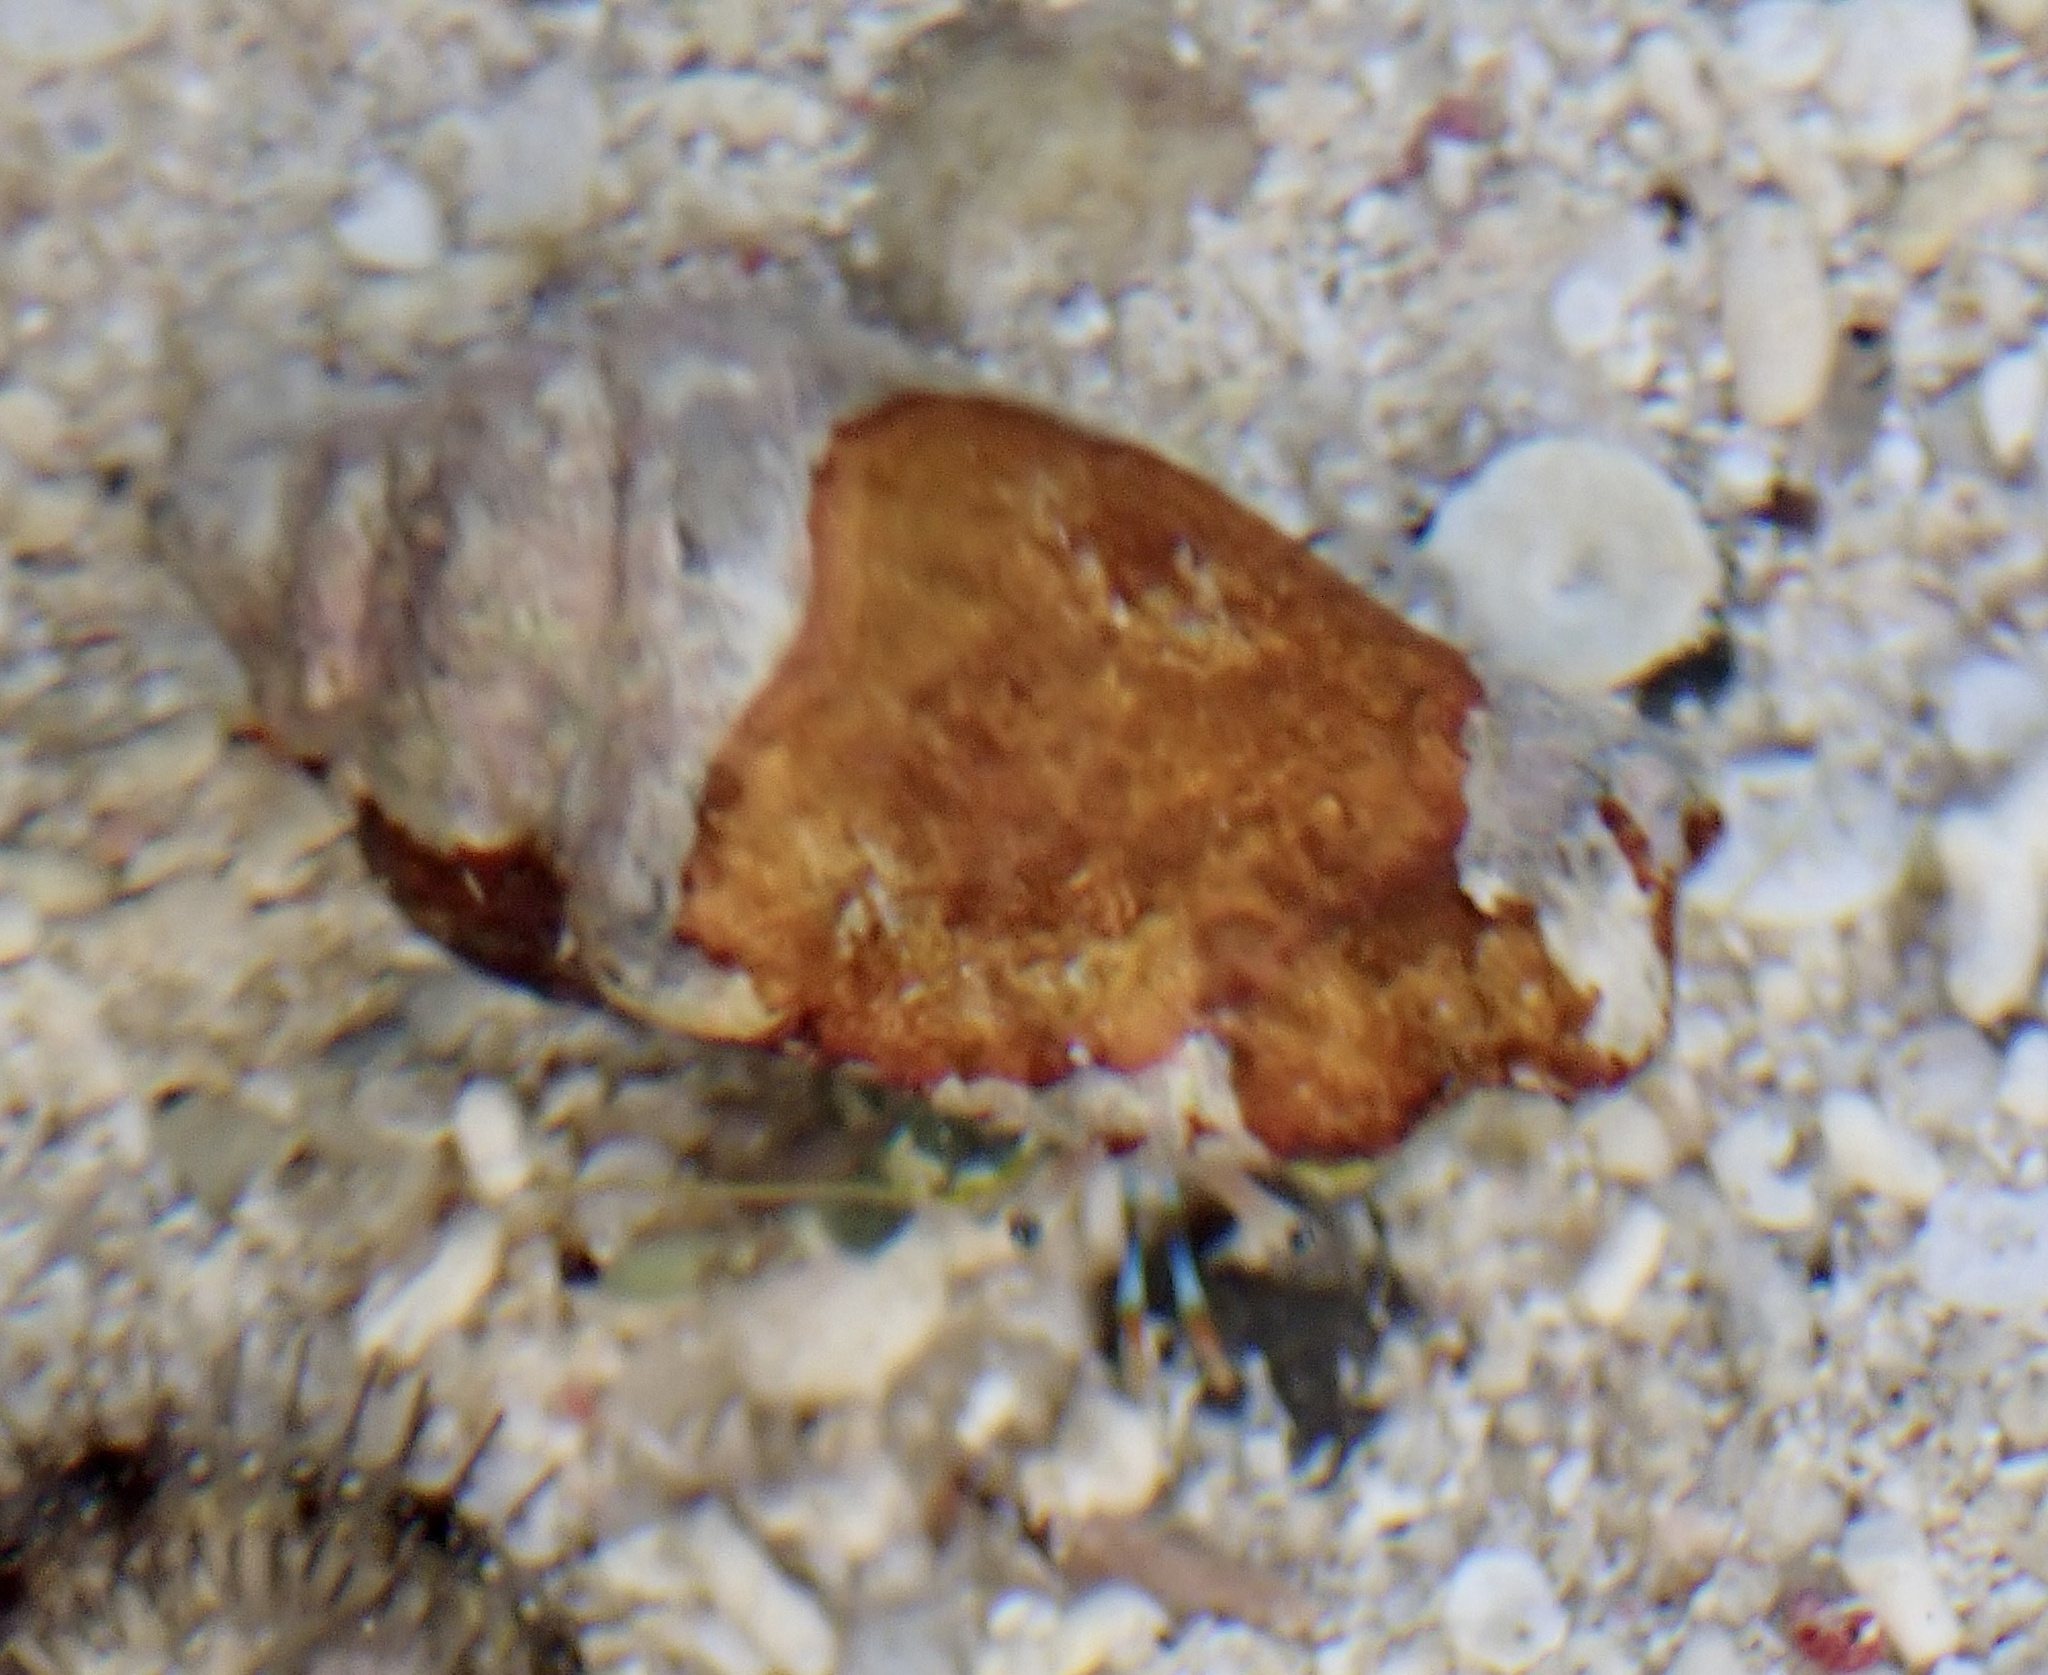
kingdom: Animalia
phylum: Arthropoda
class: Malacostraca
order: Decapoda
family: Diogenidae
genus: Calcinus
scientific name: Calcinus latens
